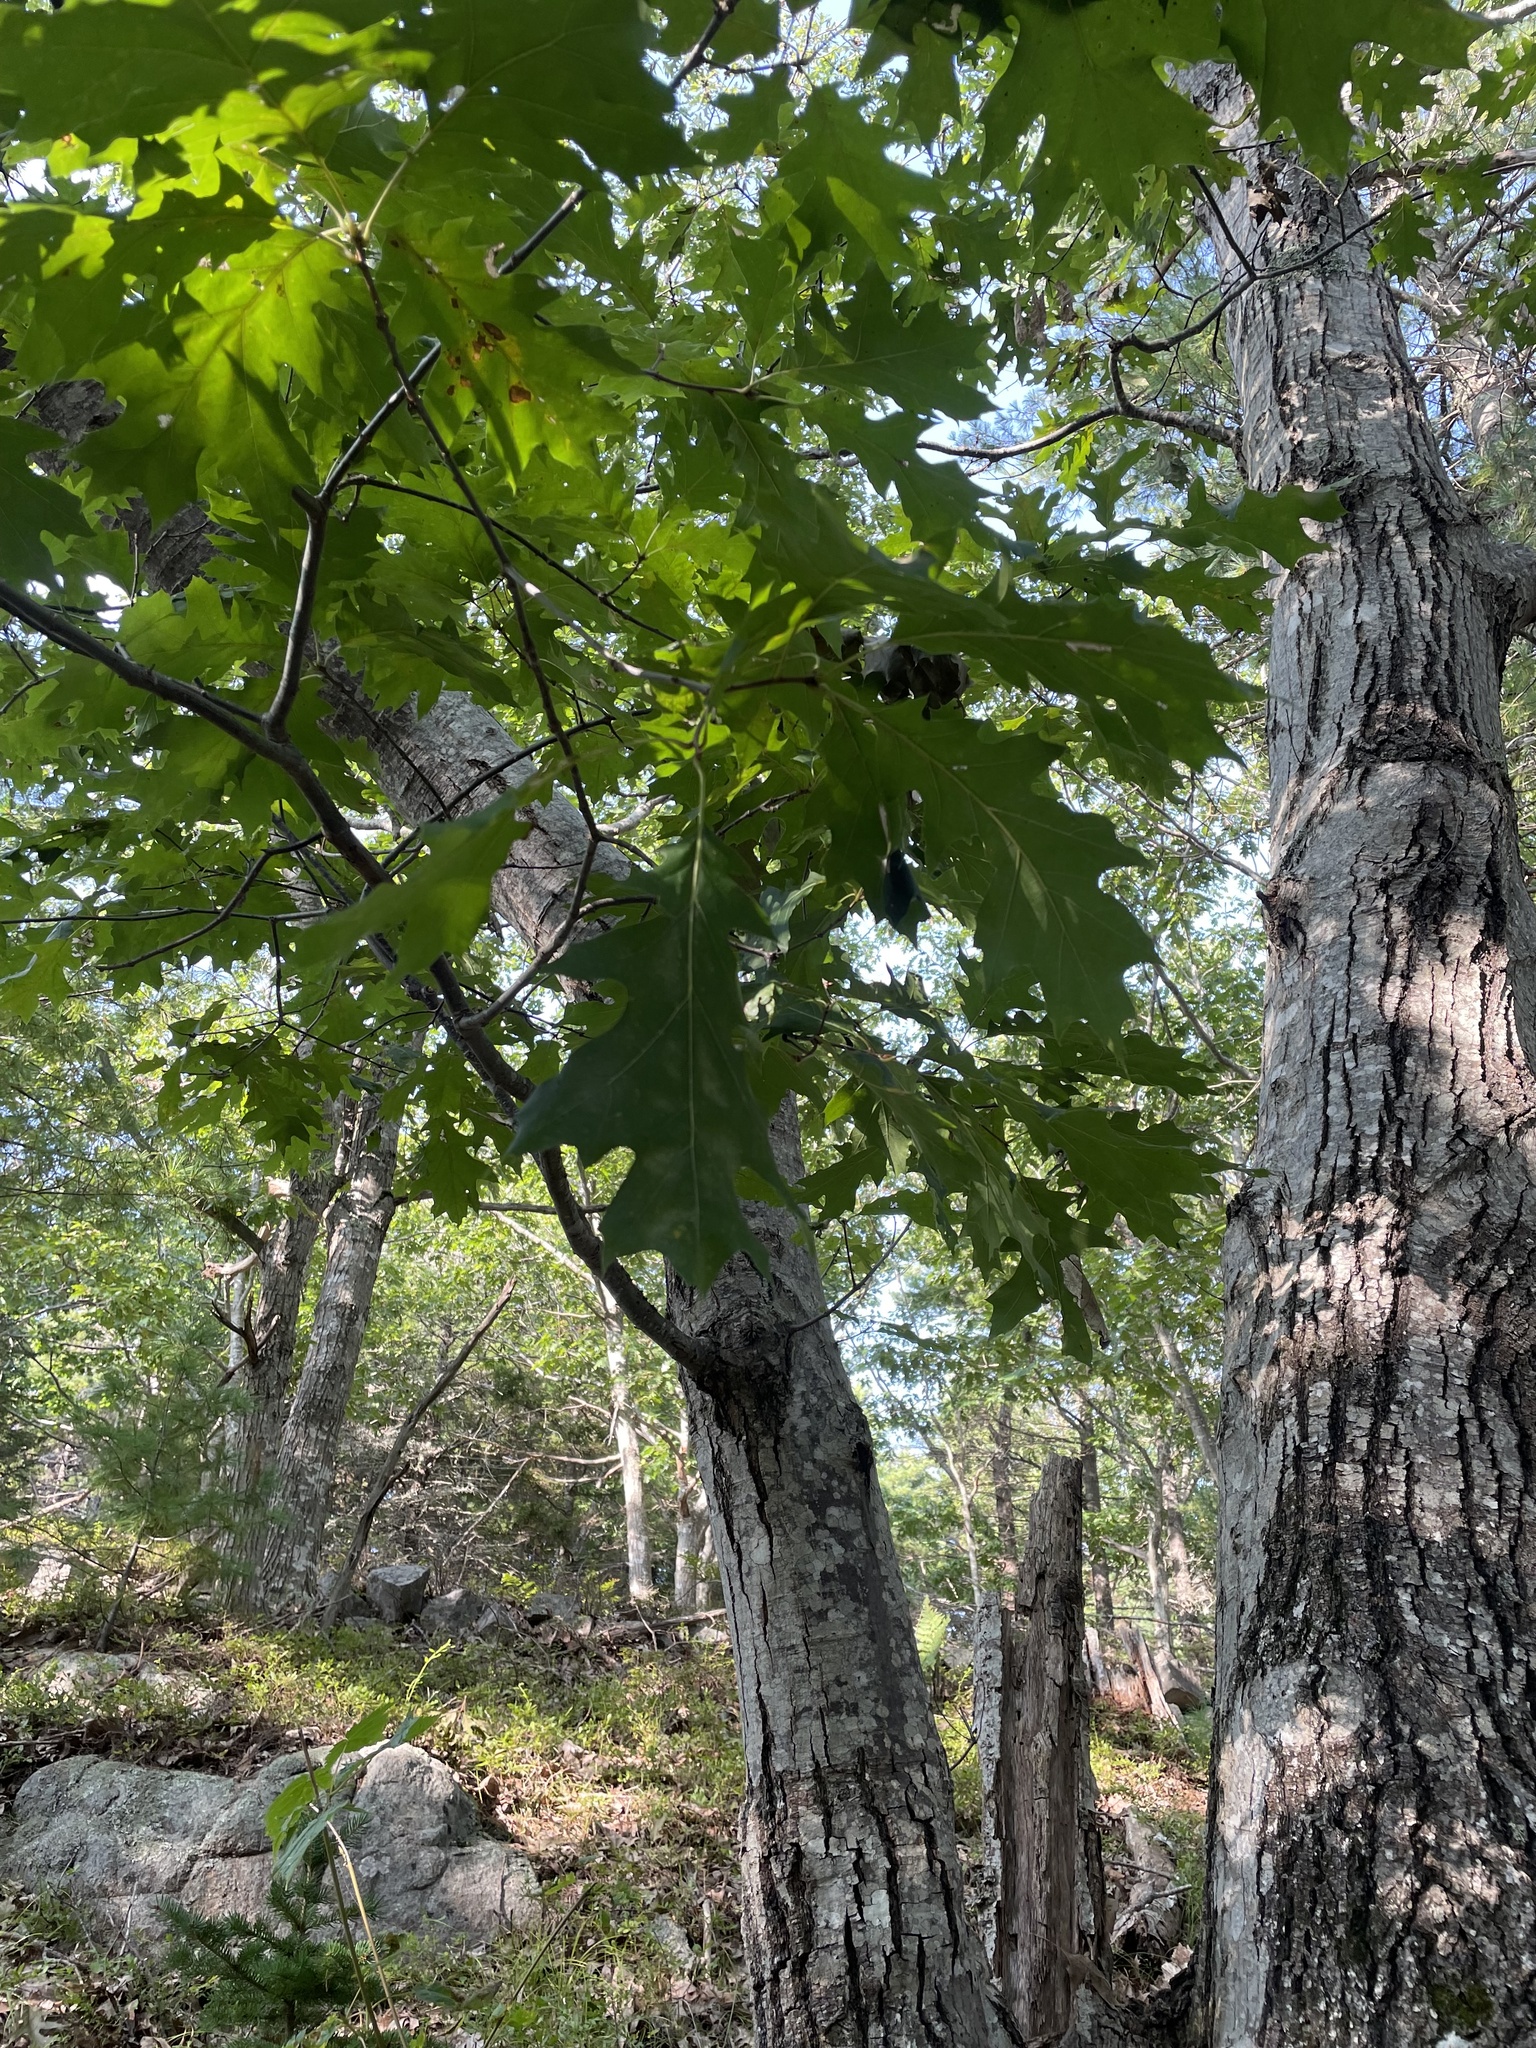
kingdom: Plantae
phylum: Tracheophyta
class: Magnoliopsida
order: Fagales
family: Fagaceae
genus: Quercus
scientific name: Quercus rubra
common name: Red oak
